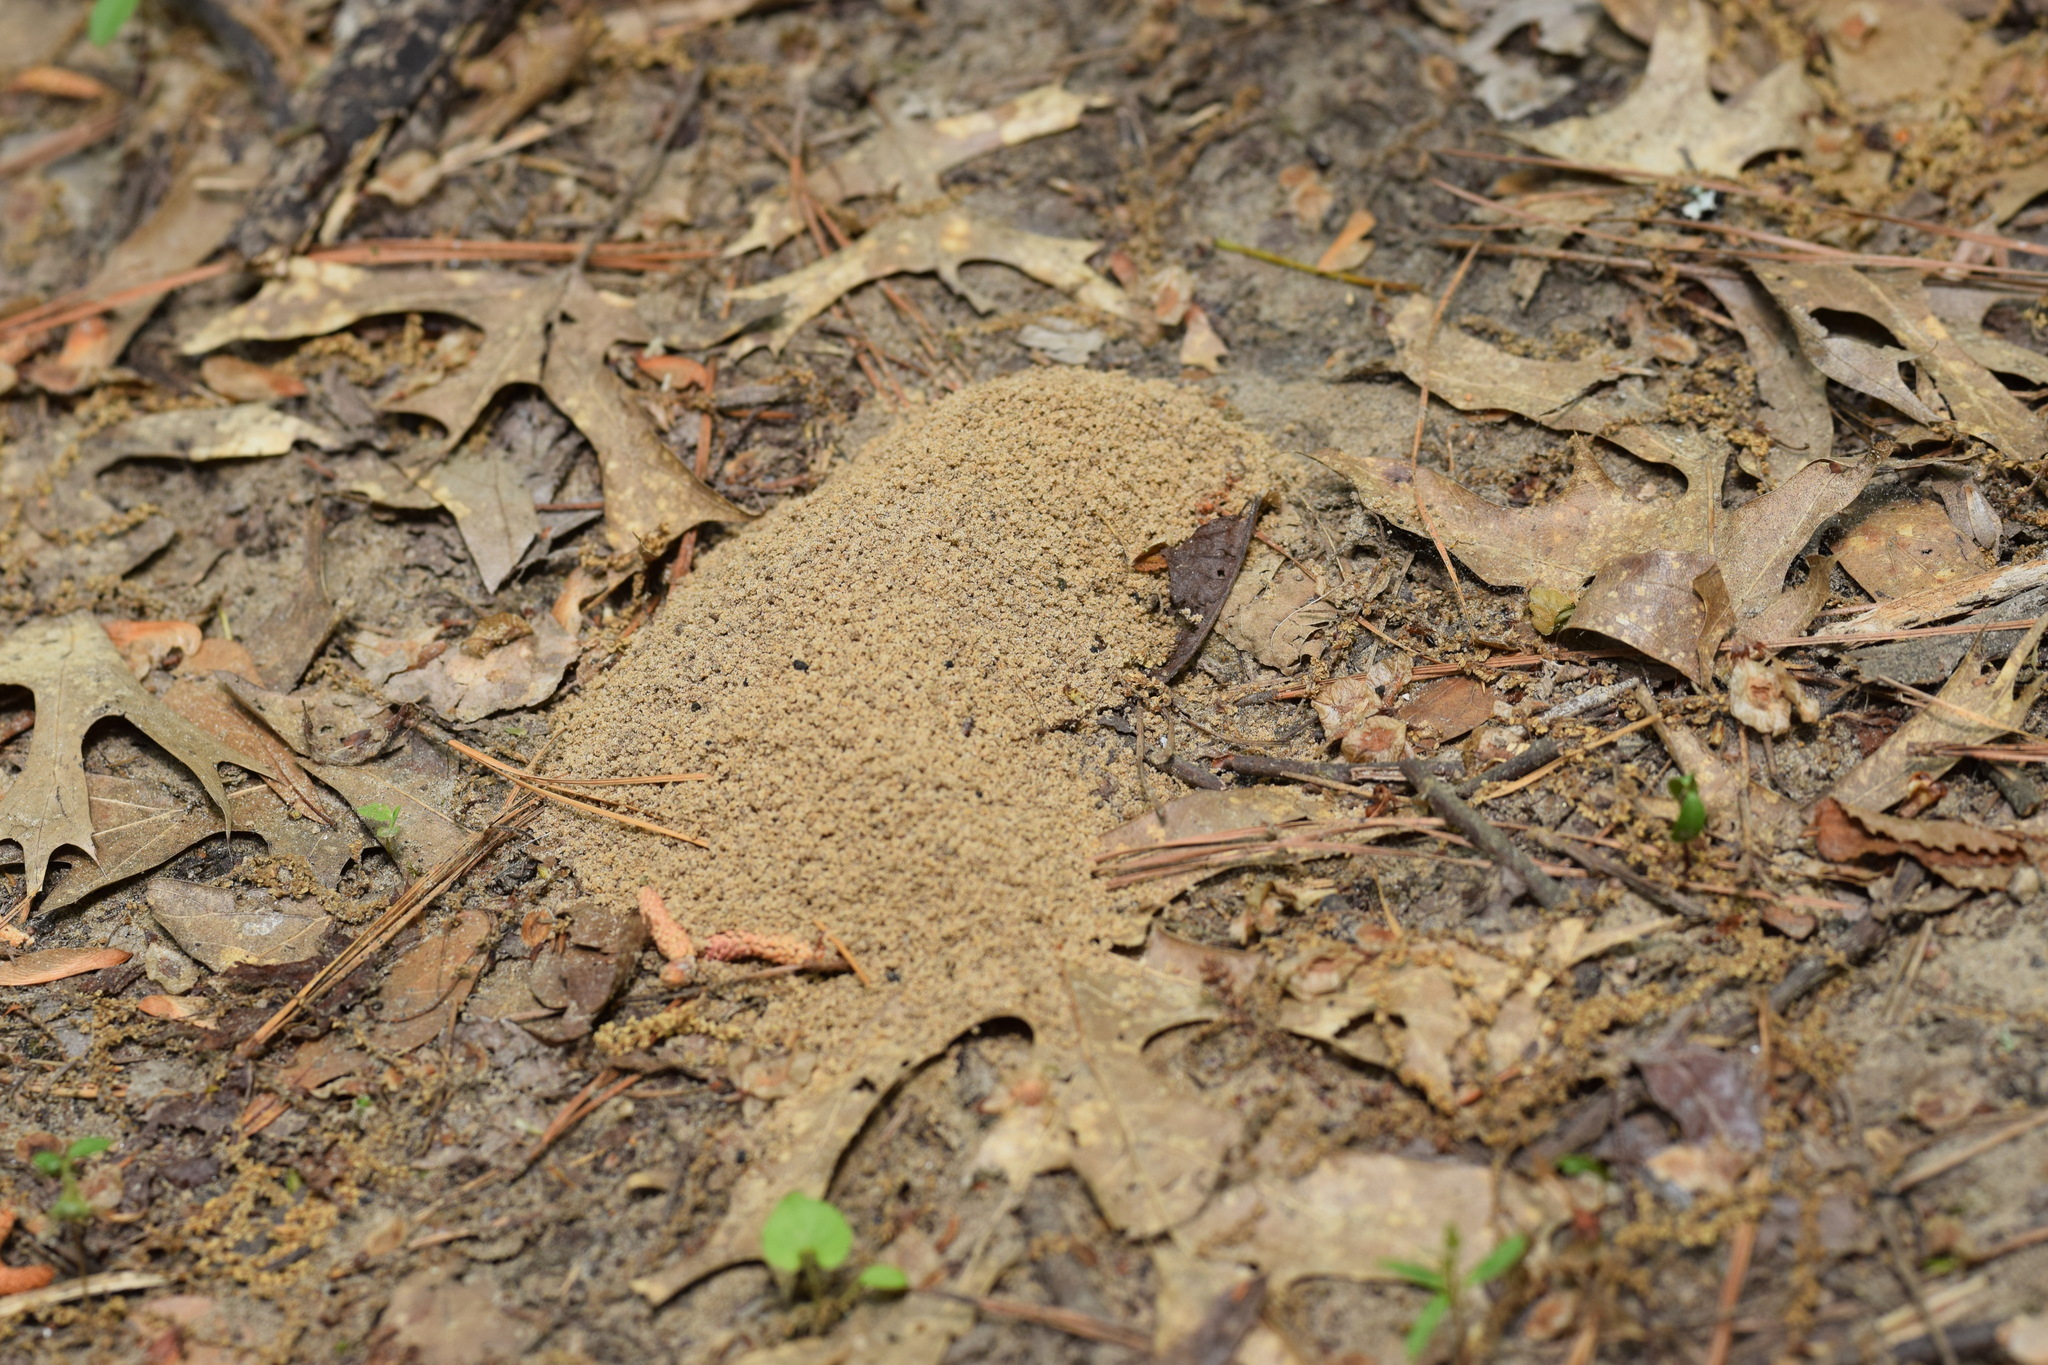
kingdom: Animalia
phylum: Arthropoda
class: Insecta
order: Hymenoptera
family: Formicidae
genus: Trachymyrmex
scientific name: Trachymyrmex septentrionalis
